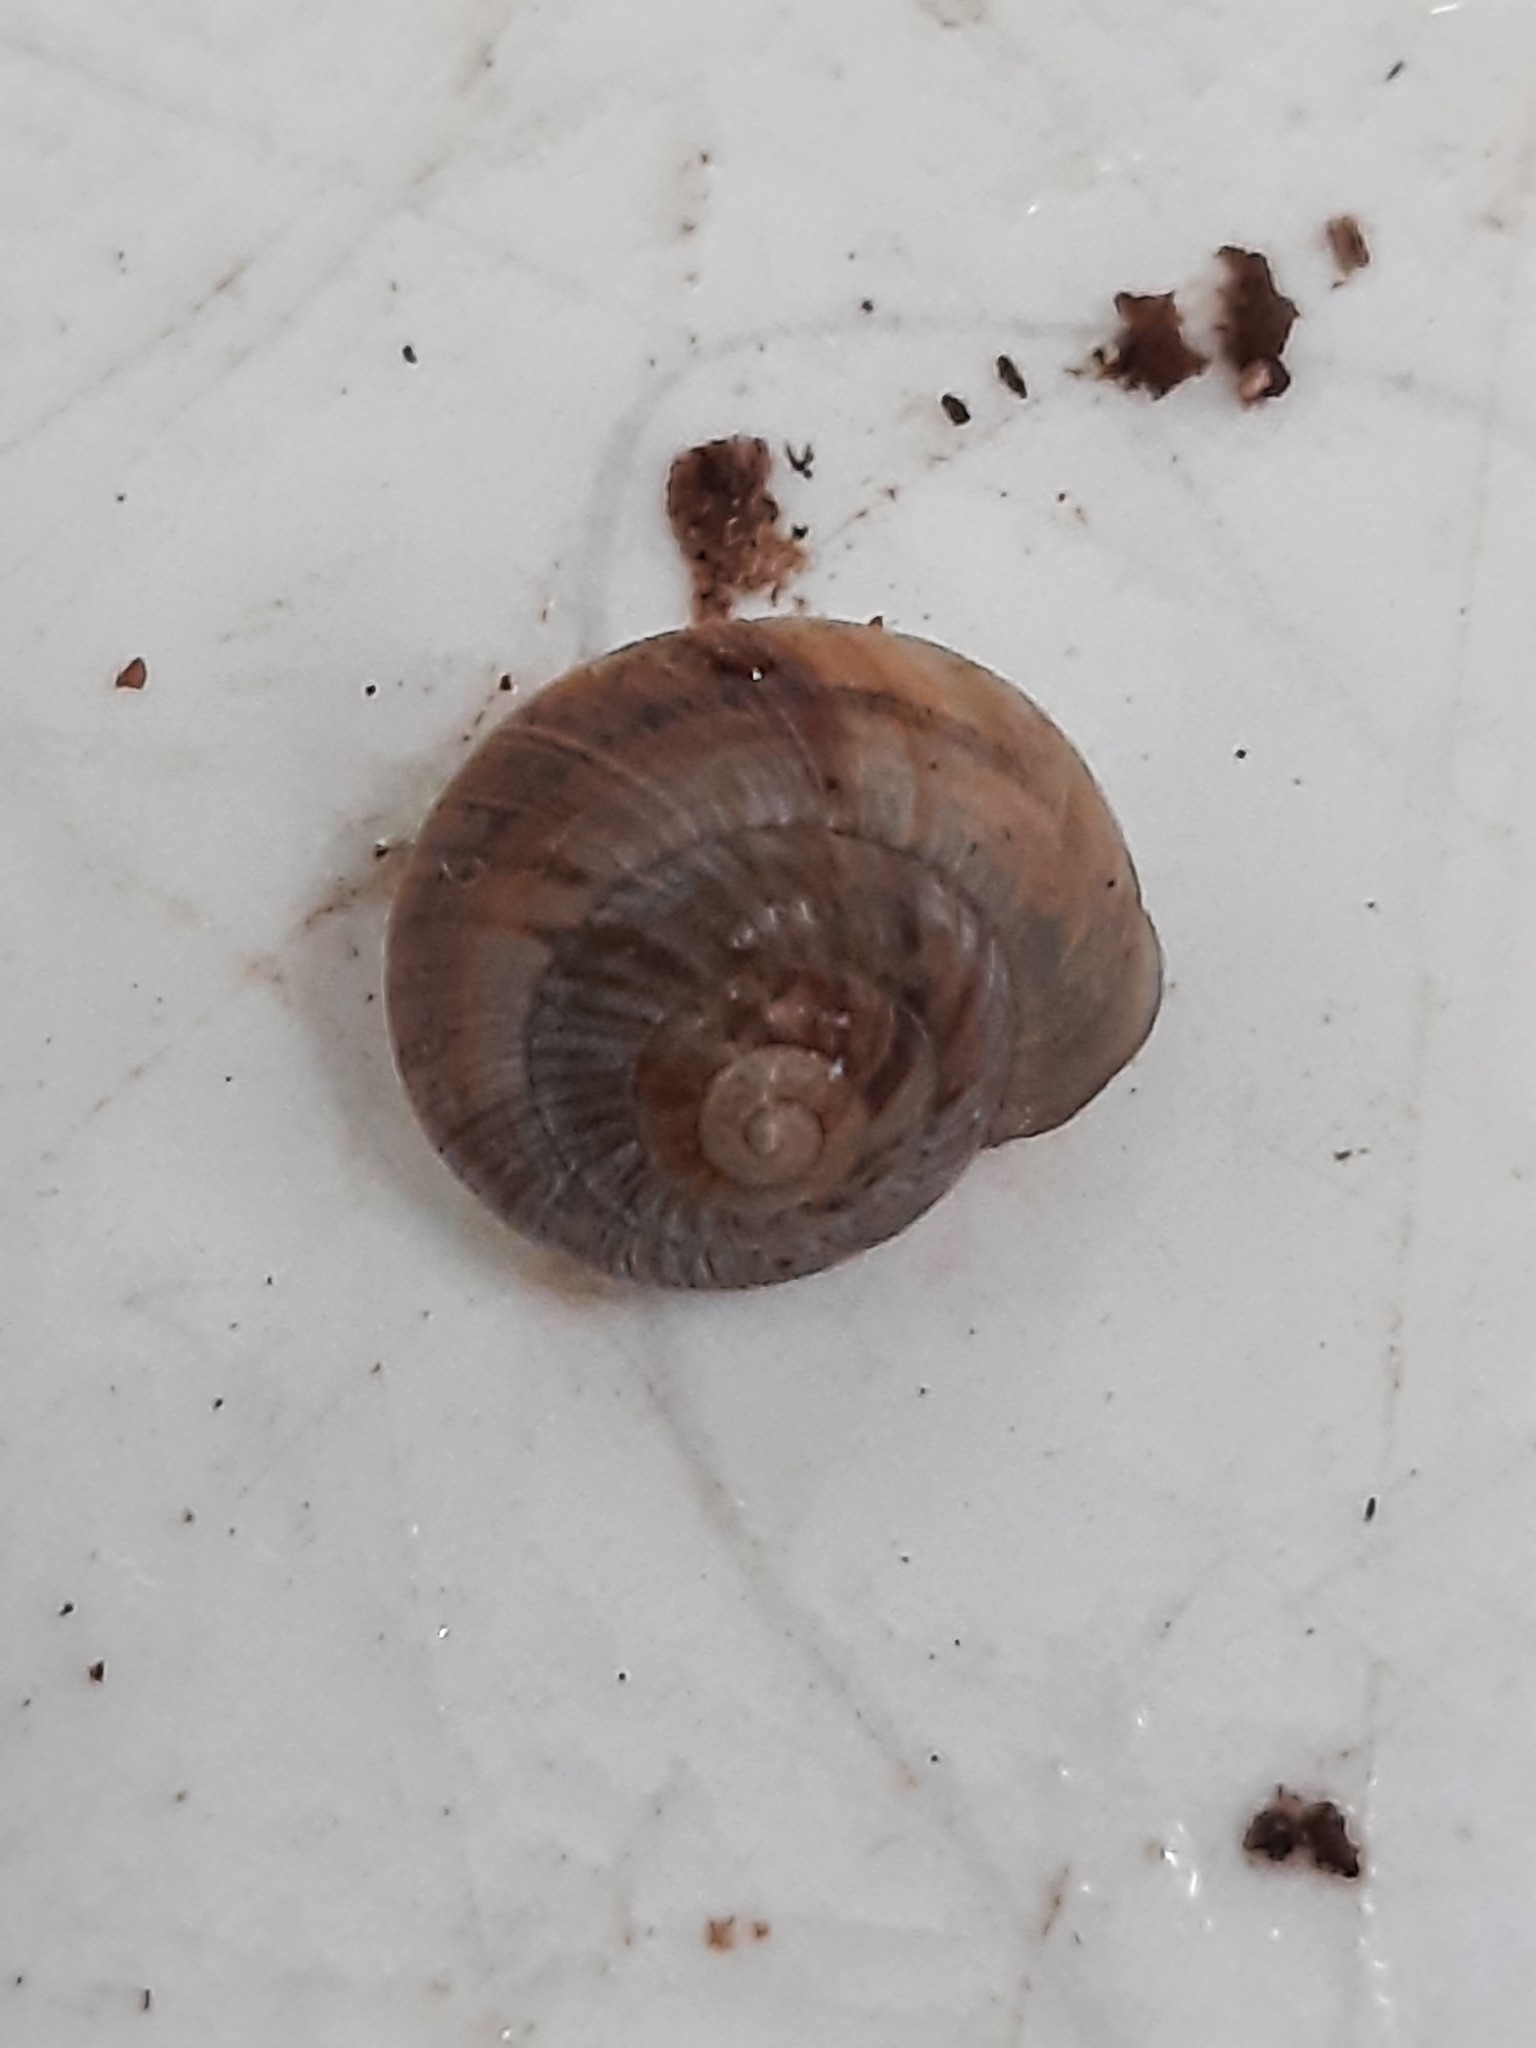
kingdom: Animalia
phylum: Mollusca
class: Gastropoda
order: Stylommatophora
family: Charopidae
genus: Serpho
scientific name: Serpho
